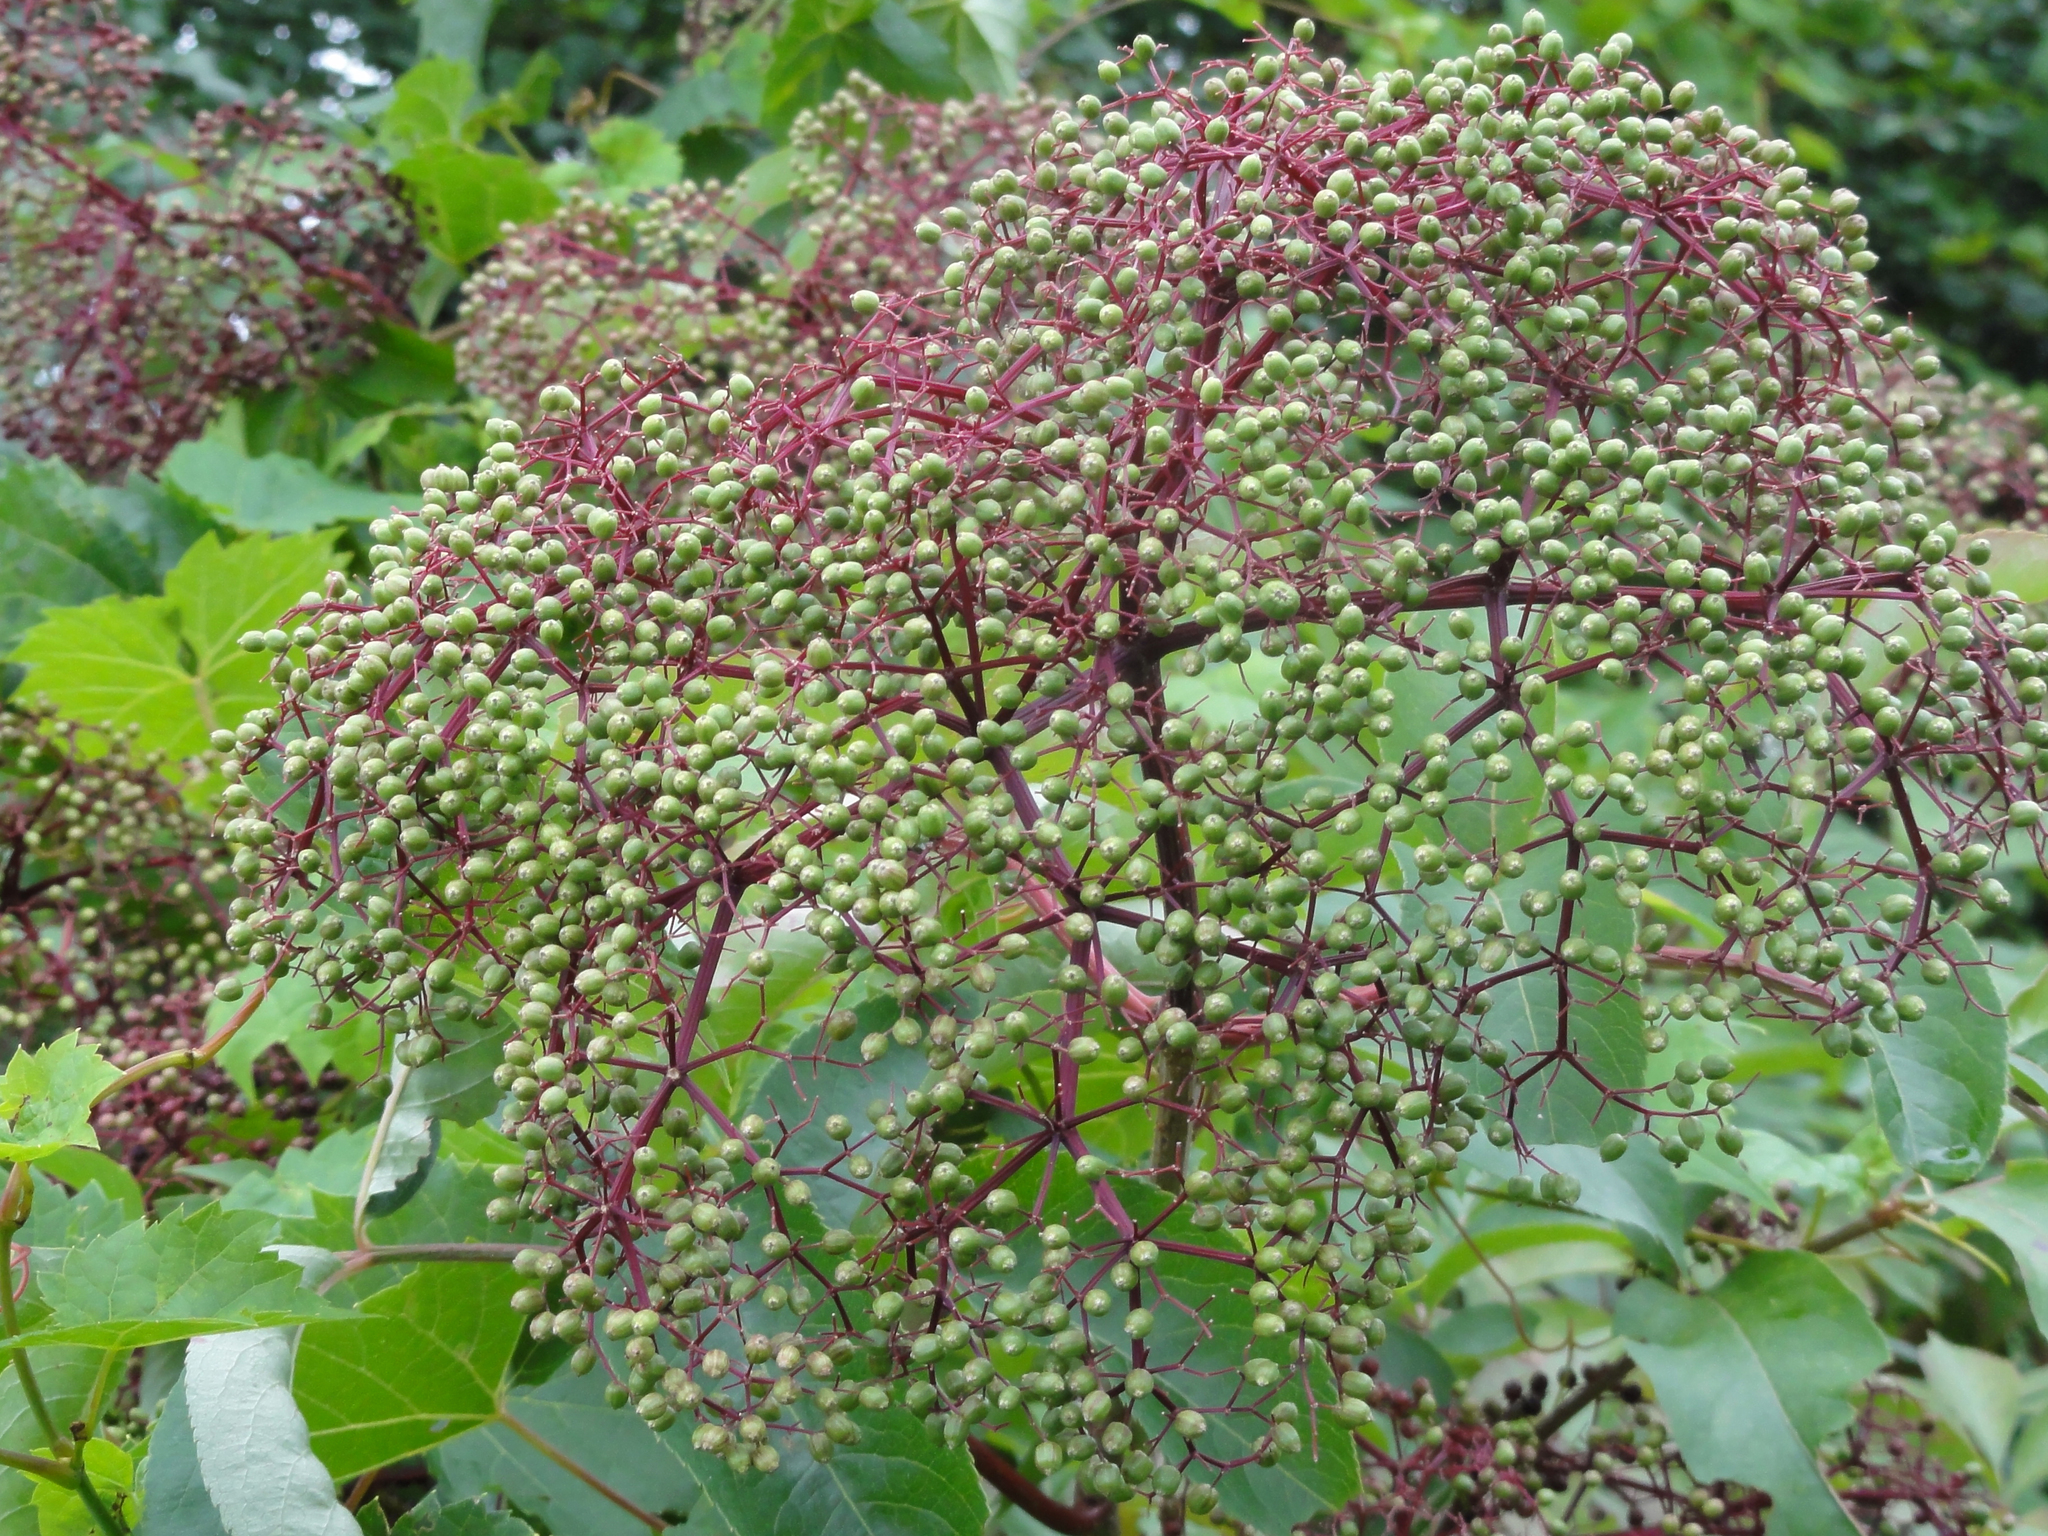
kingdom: Plantae
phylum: Tracheophyta
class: Magnoliopsida
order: Dipsacales
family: Viburnaceae
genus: Sambucus
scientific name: Sambucus canadensis
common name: American elder
